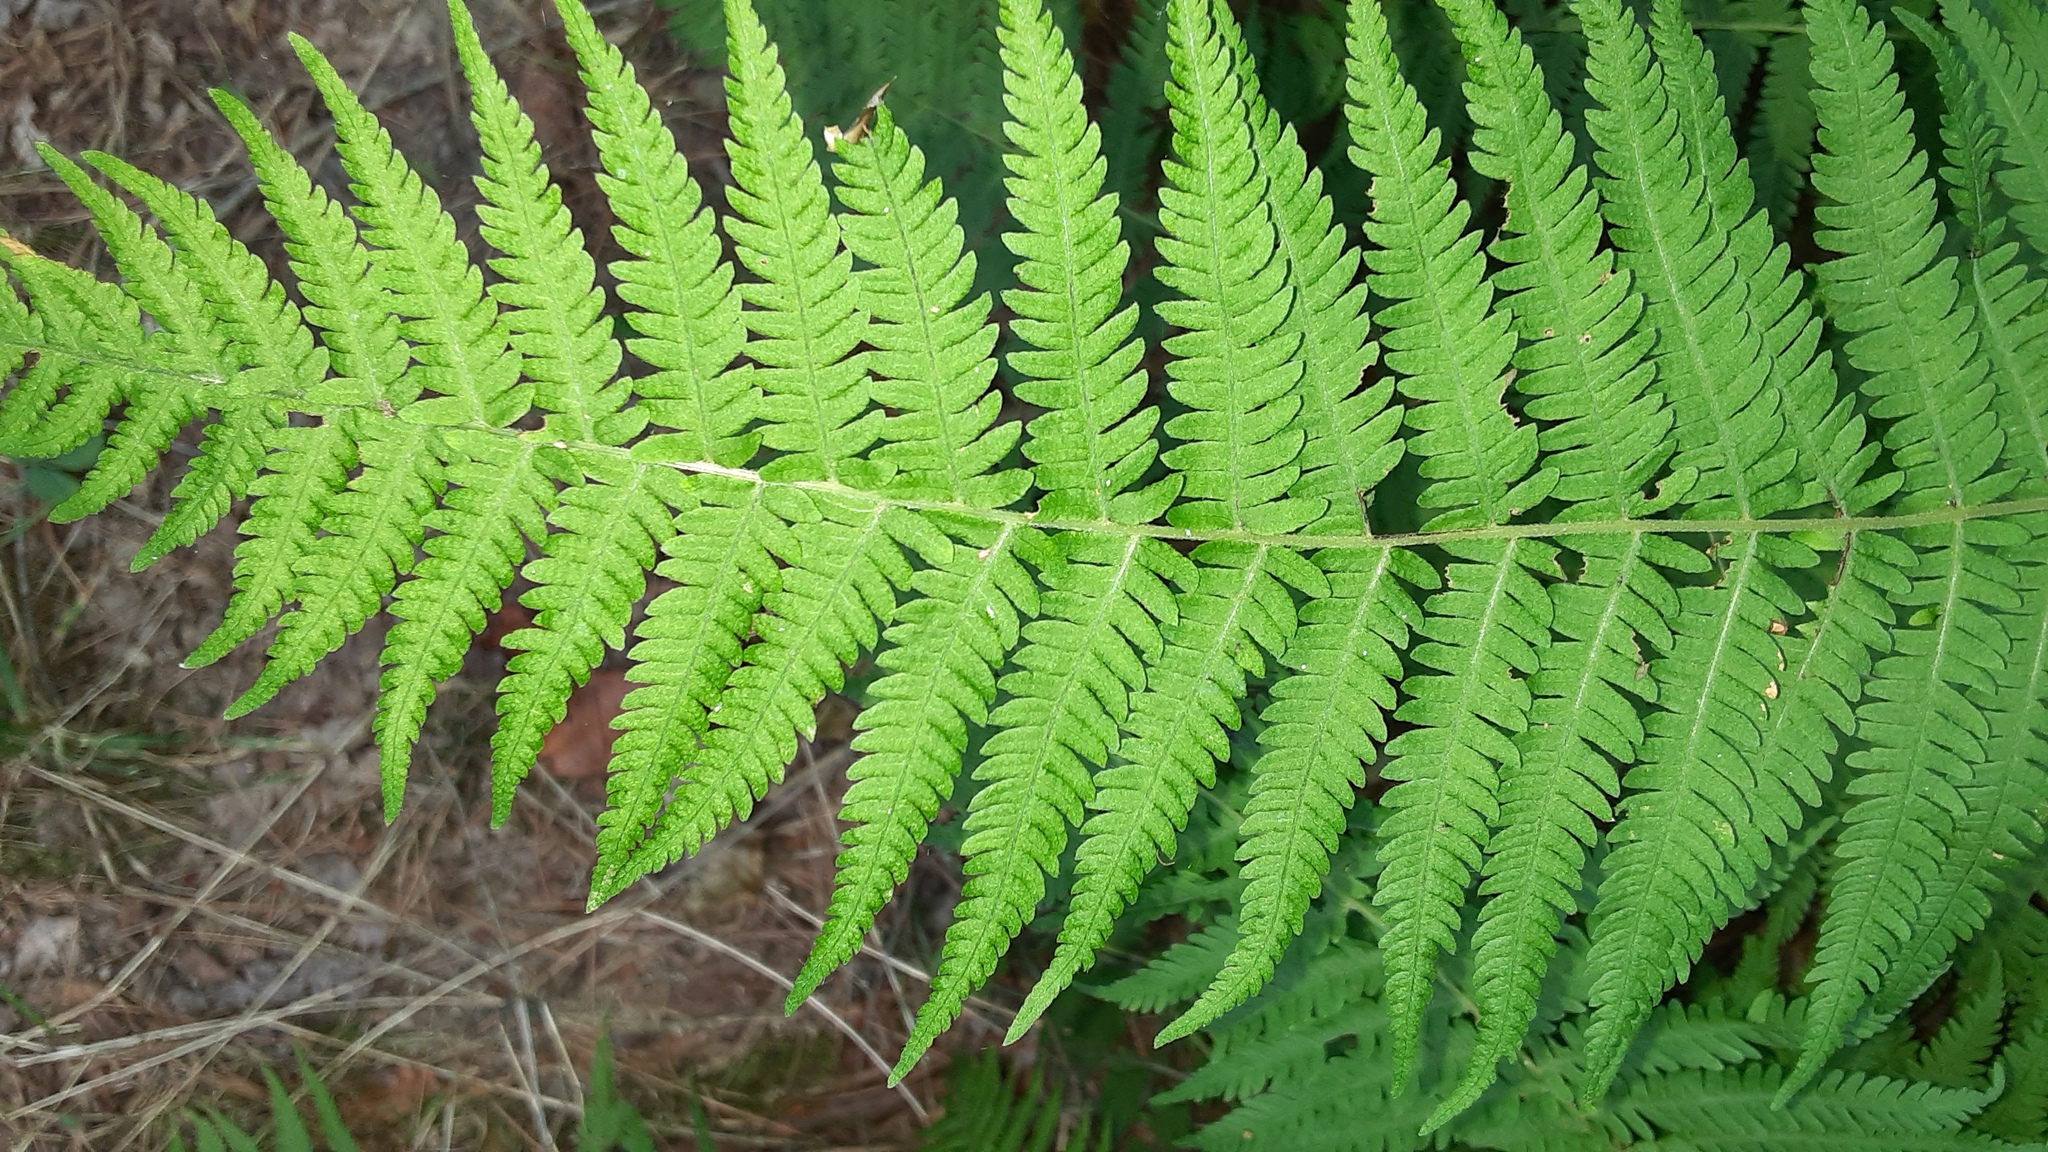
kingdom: Plantae
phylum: Tracheophyta
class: Polypodiopsida
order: Polypodiales
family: Thelypteridaceae
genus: Amauropelta
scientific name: Amauropelta noveboracensis
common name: New york fern
